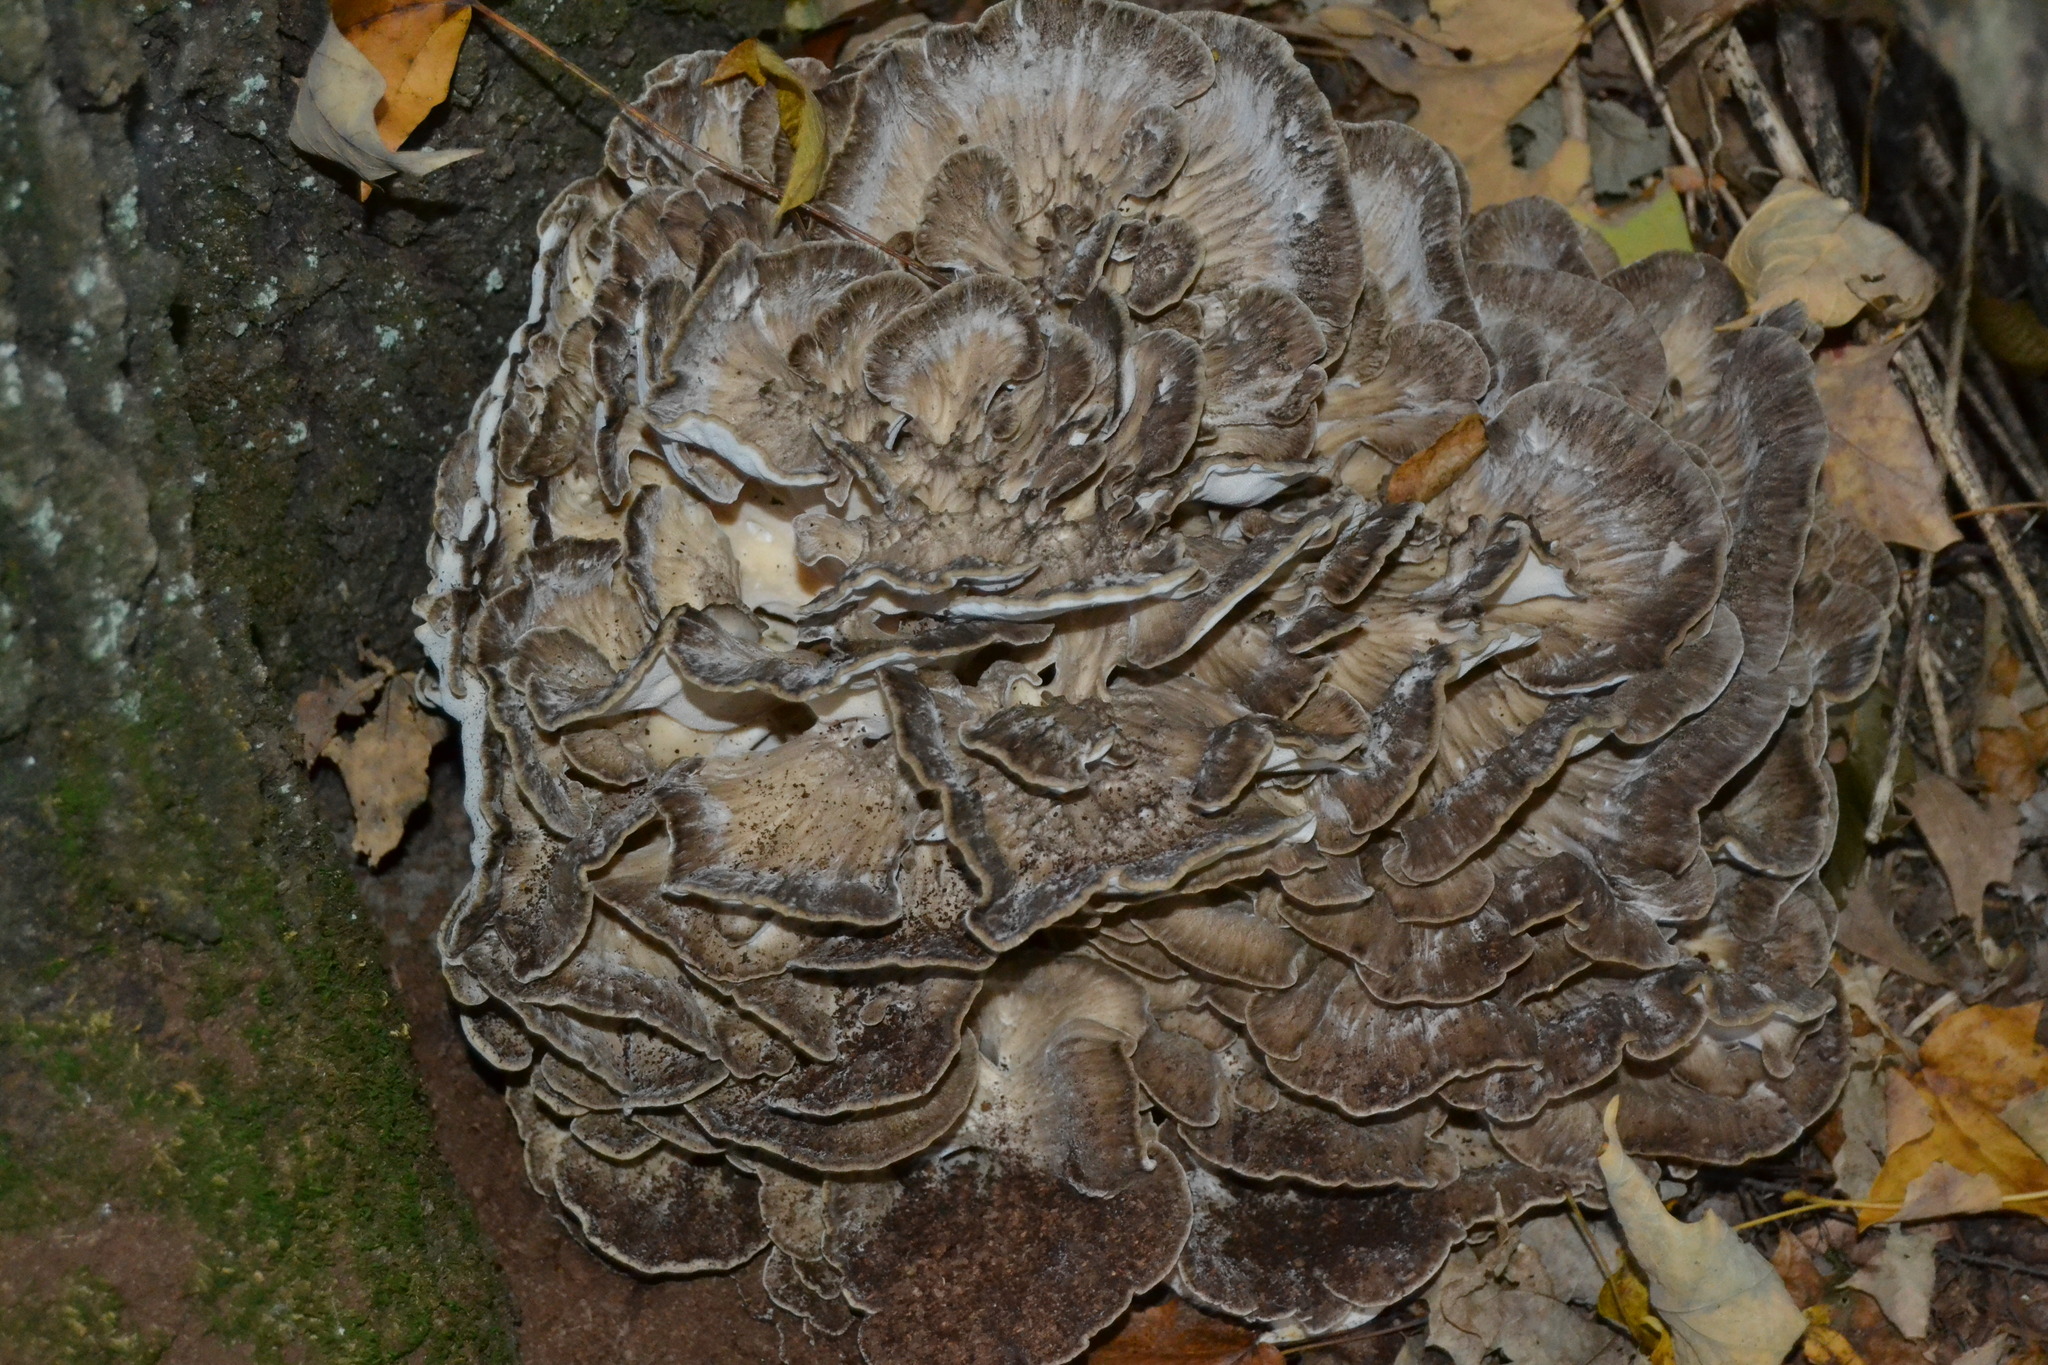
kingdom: Fungi
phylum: Basidiomycota
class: Agaricomycetes
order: Polyporales
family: Grifolaceae
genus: Grifola
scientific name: Grifola frondosa
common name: Hen of the woods
